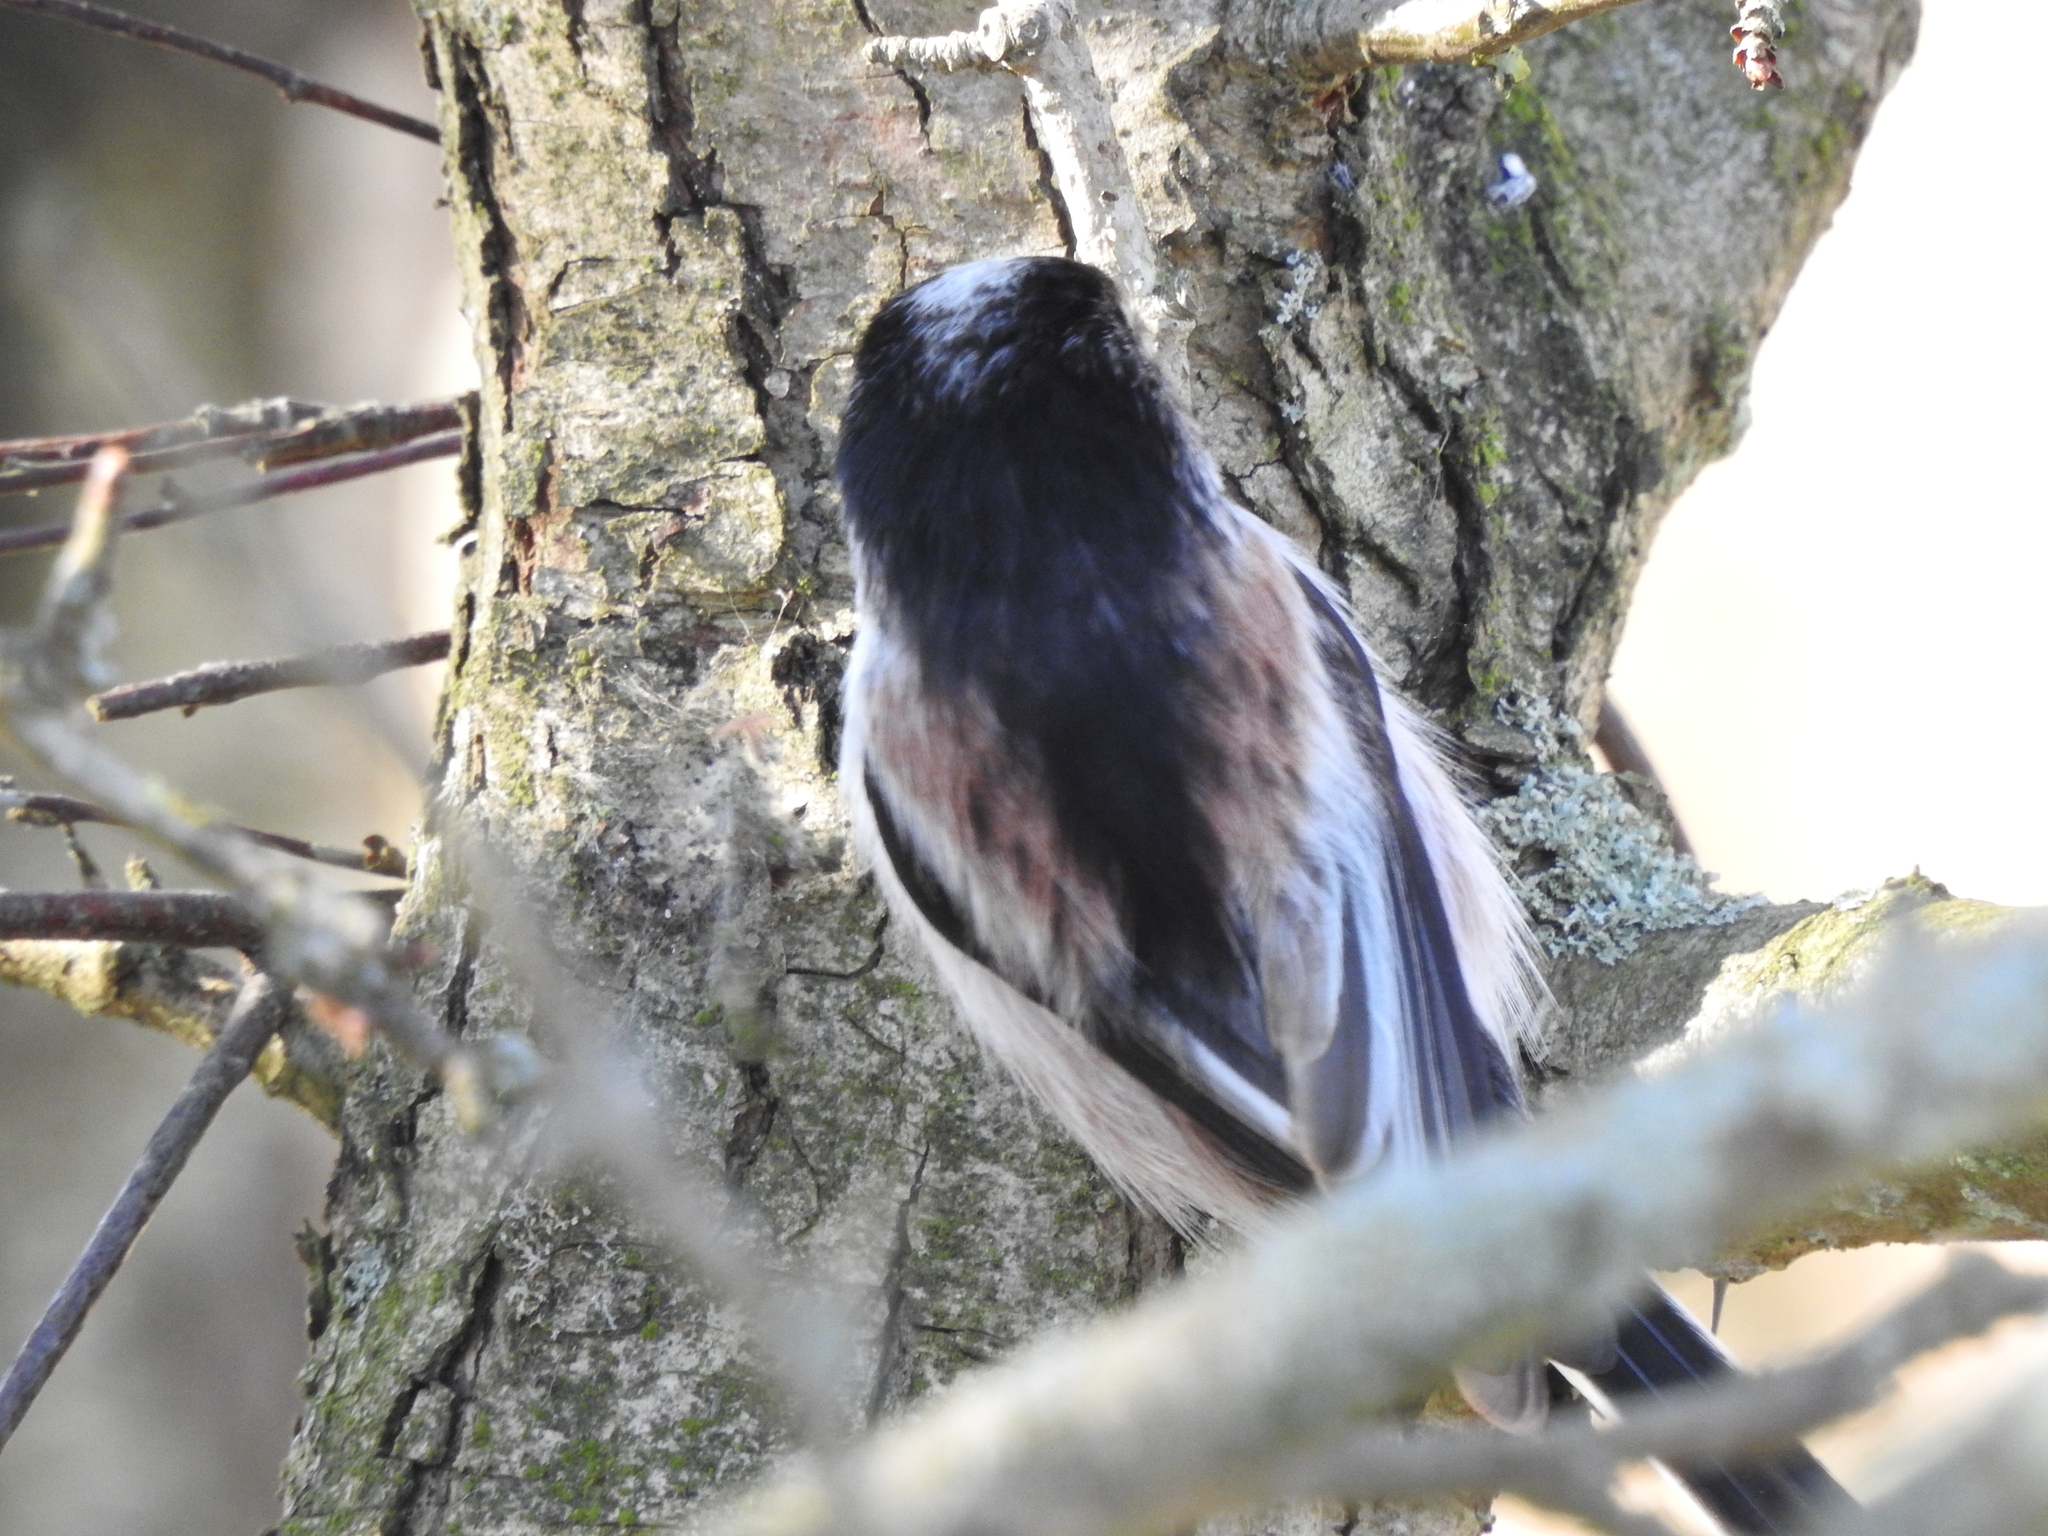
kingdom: Animalia
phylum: Chordata
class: Aves
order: Passeriformes
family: Aegithalidae
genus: Aegithalos
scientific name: Aegithalos caudatus
